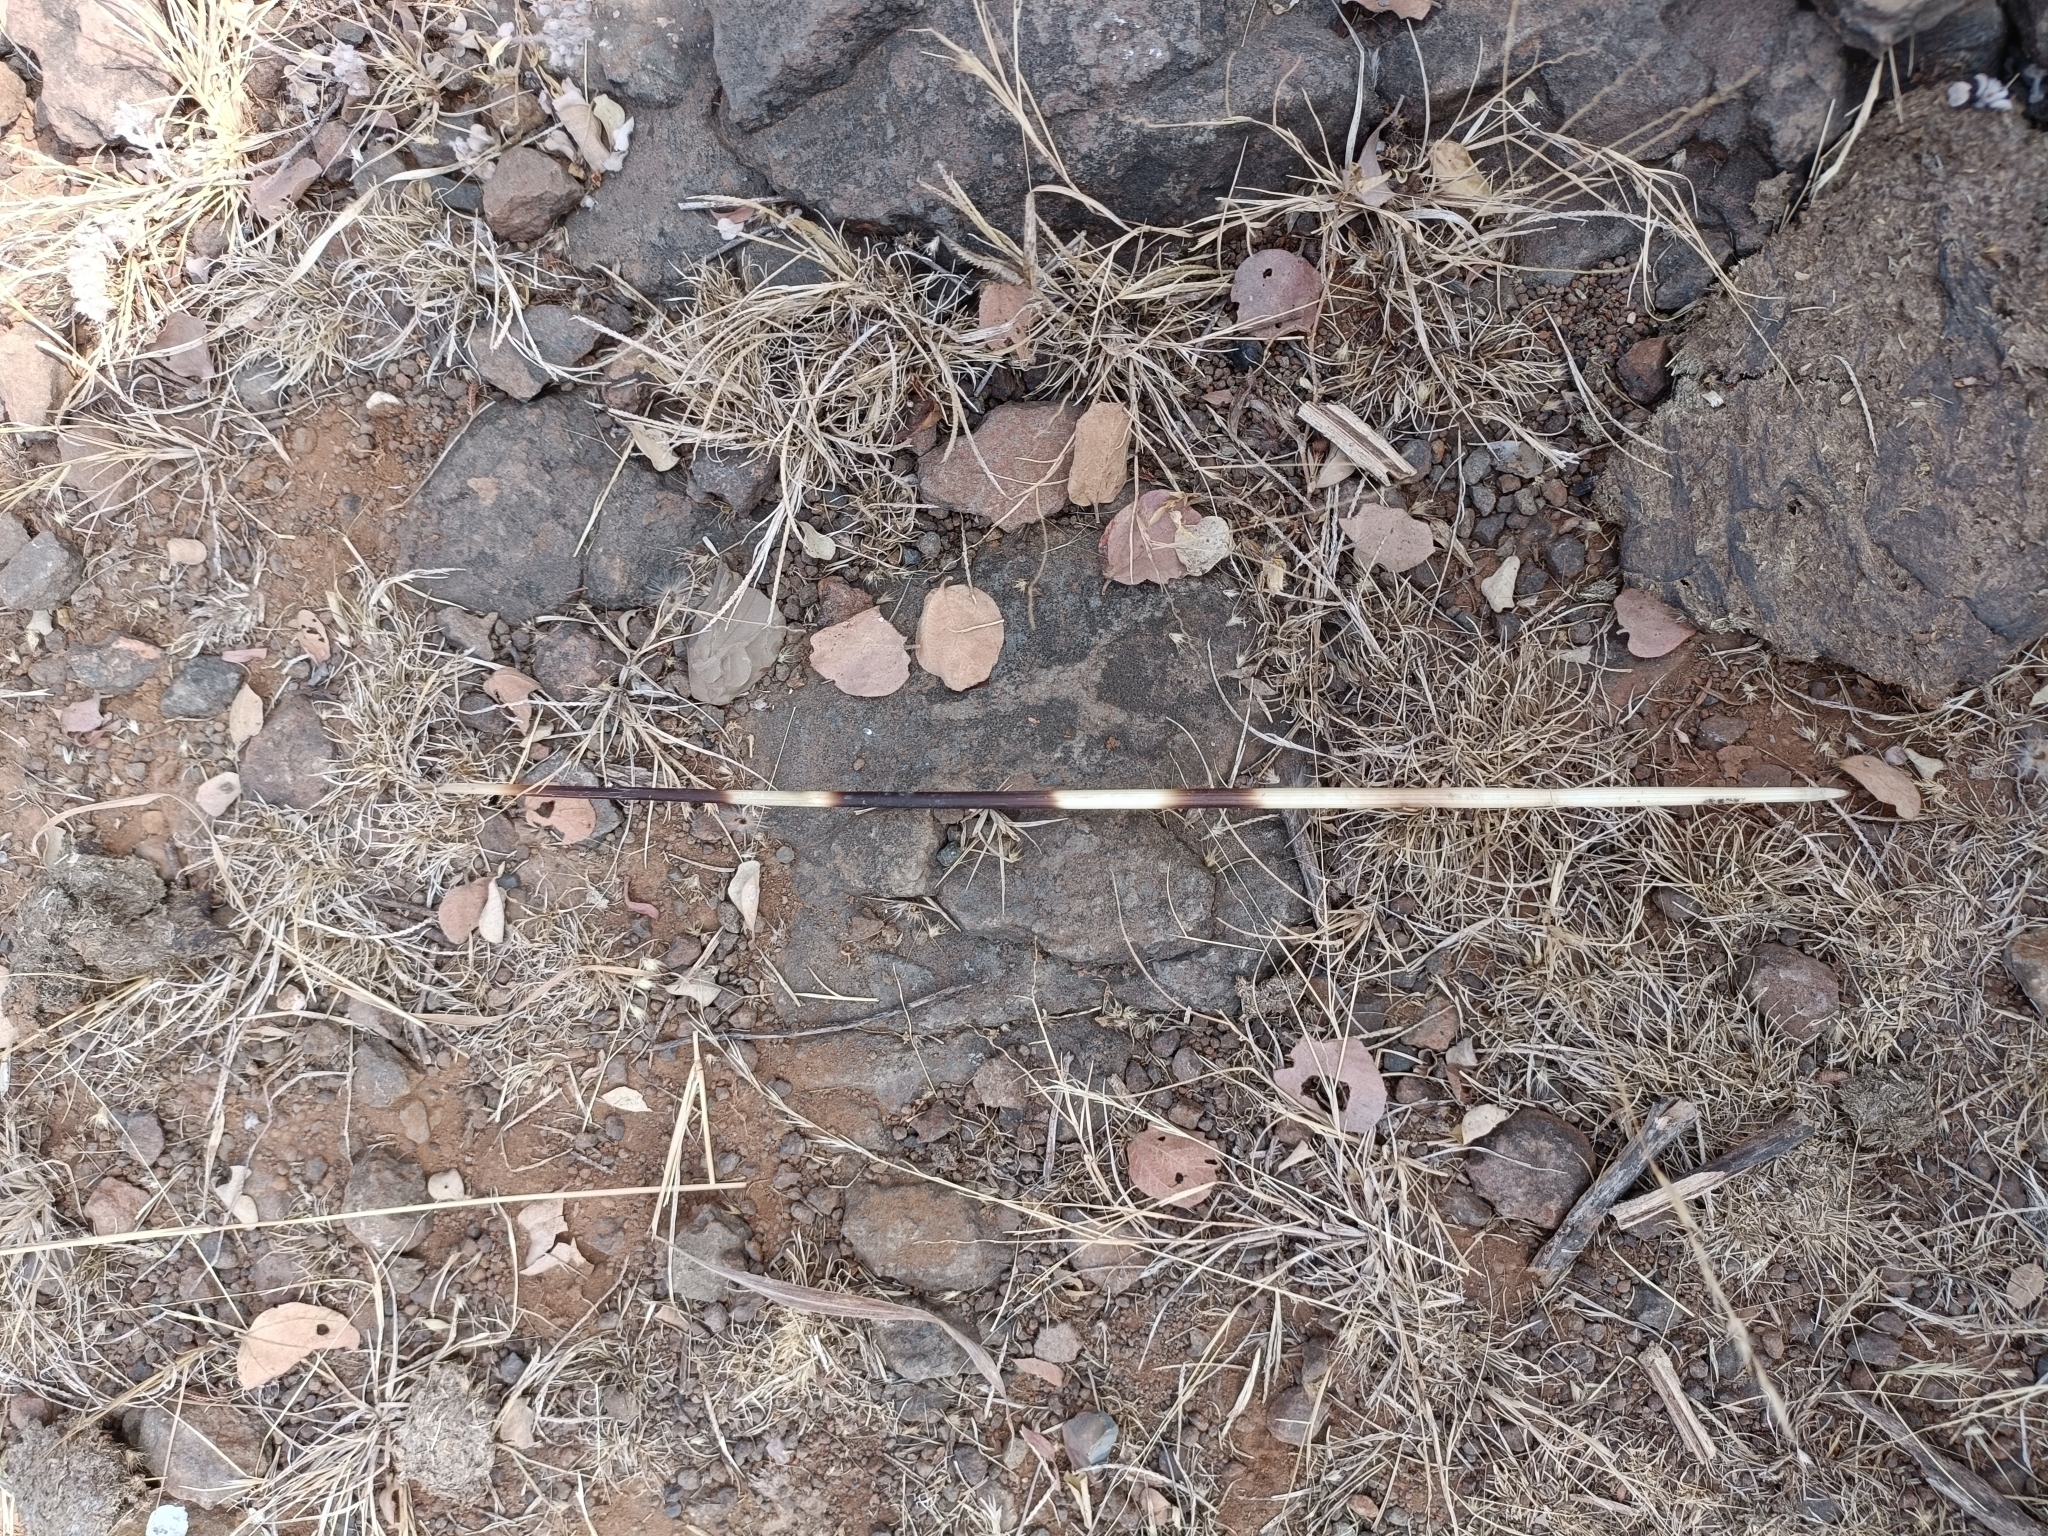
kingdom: Animalia
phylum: Chordata
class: Mammalia
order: Rodentia
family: Hystricidae
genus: Hystrix
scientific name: Hystrix indica
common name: Indian crested porcupine
